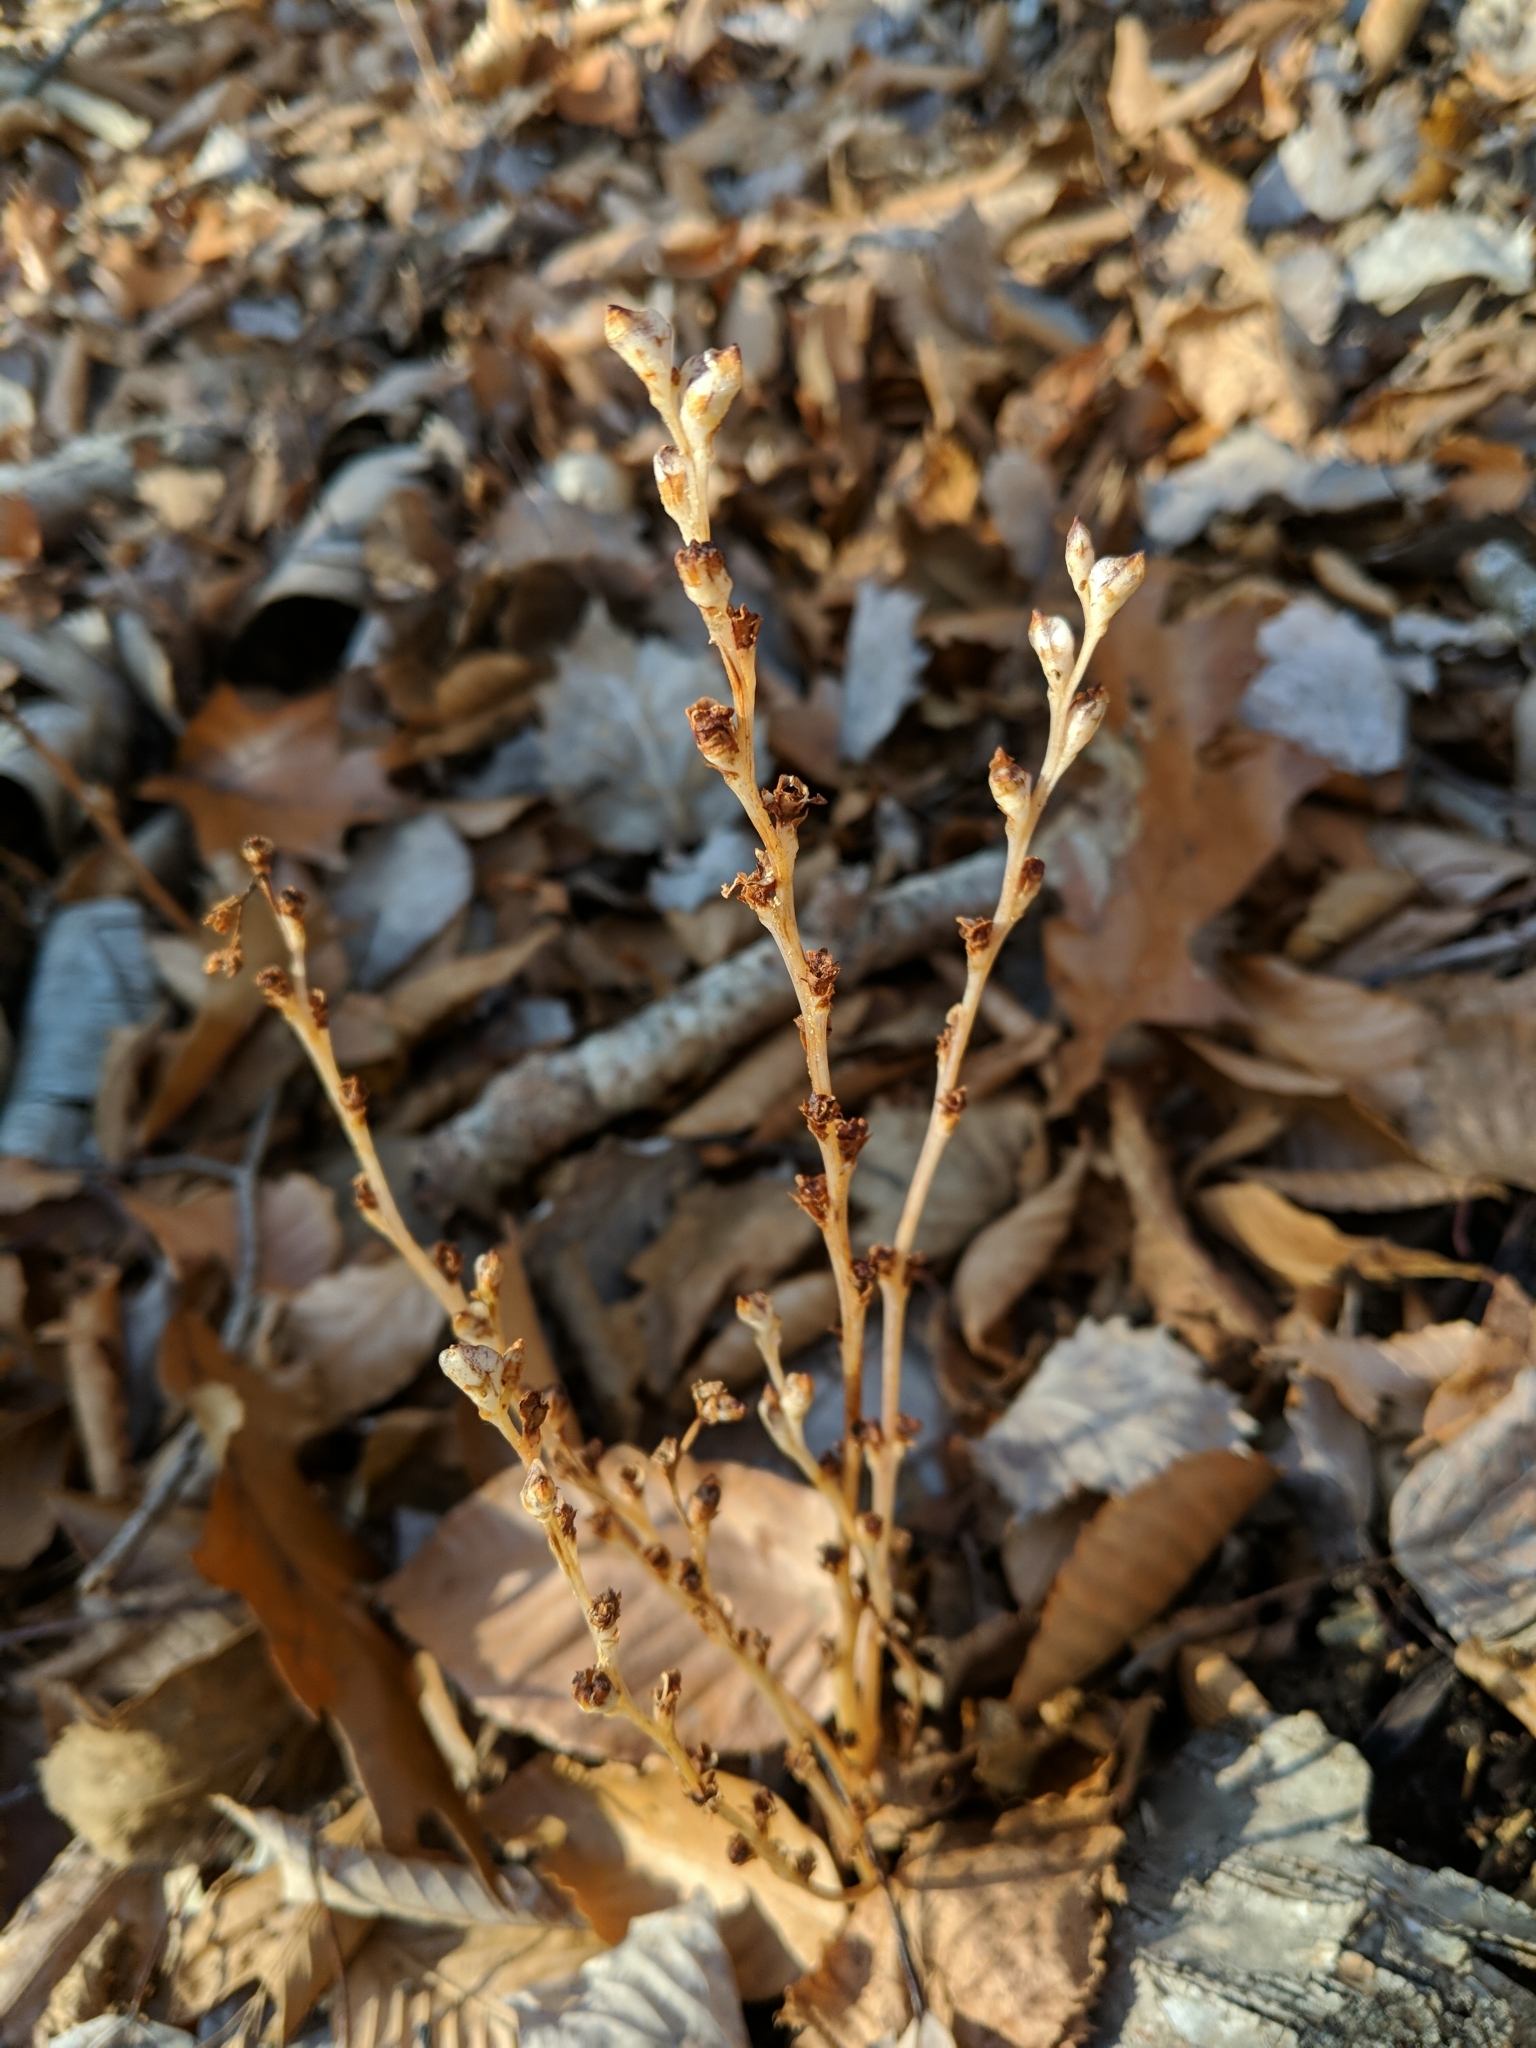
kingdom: Plantae
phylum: Tracheophyta
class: Magnoliopsida
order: Lamiales
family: Orobanchaceae
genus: Epifagus
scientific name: Epifagus virginiana
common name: Beechdrops
